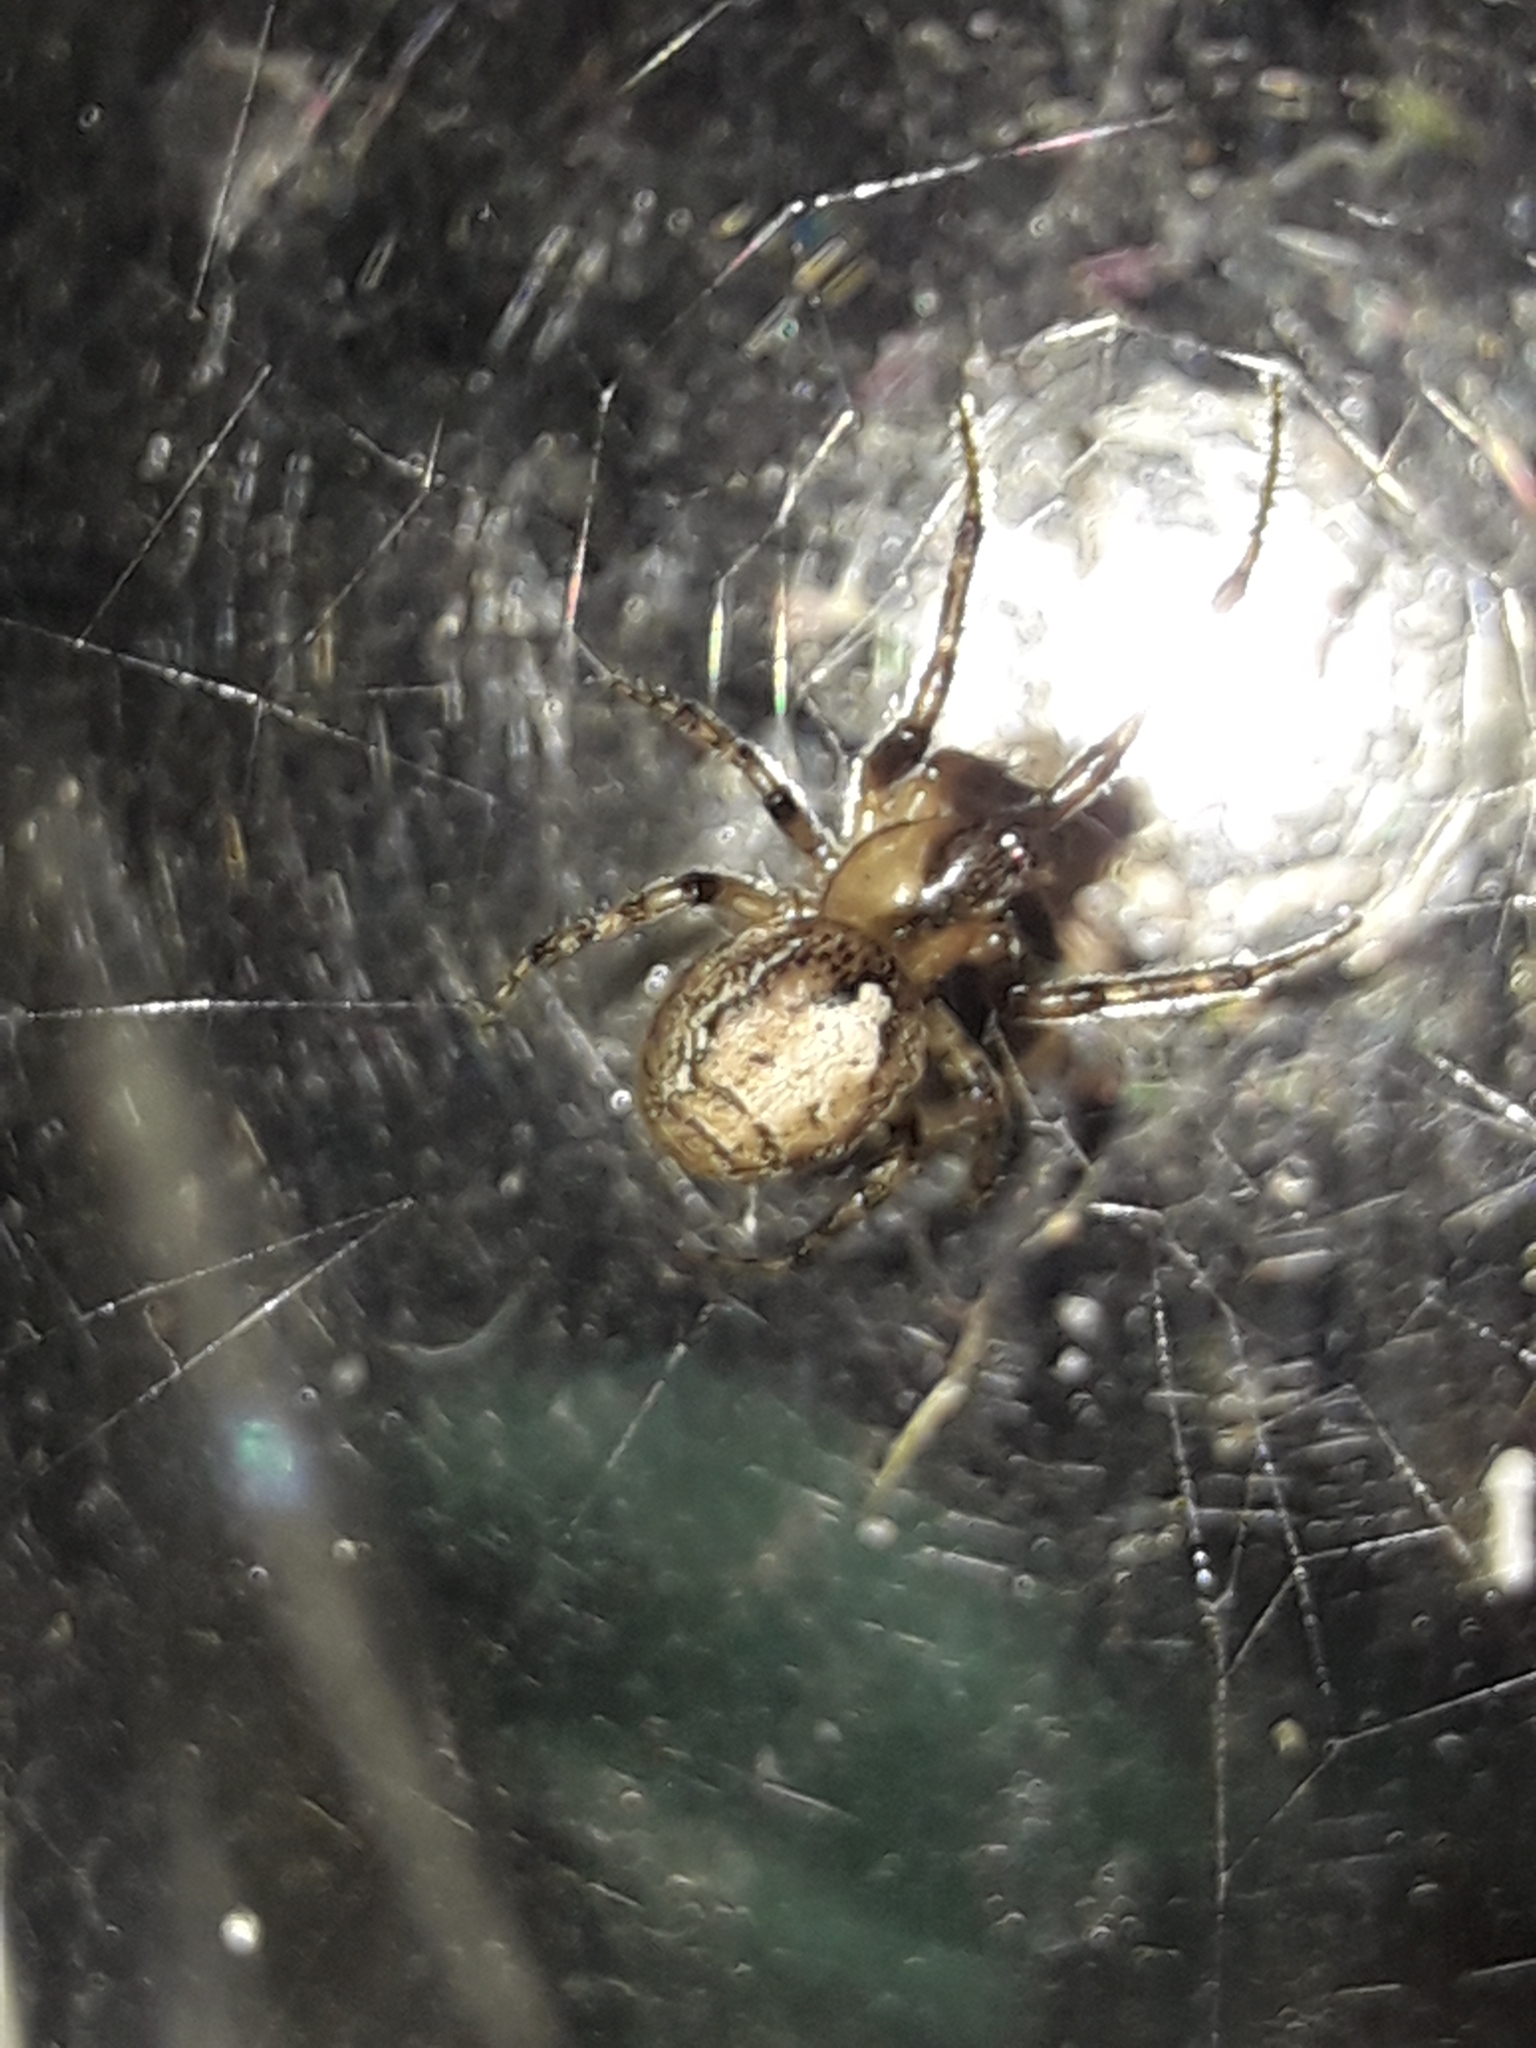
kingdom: Animalia
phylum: Arthropoda
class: Arachnida
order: Araneae
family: Araneidae
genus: Zygiella
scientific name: Zygiella x-notata
